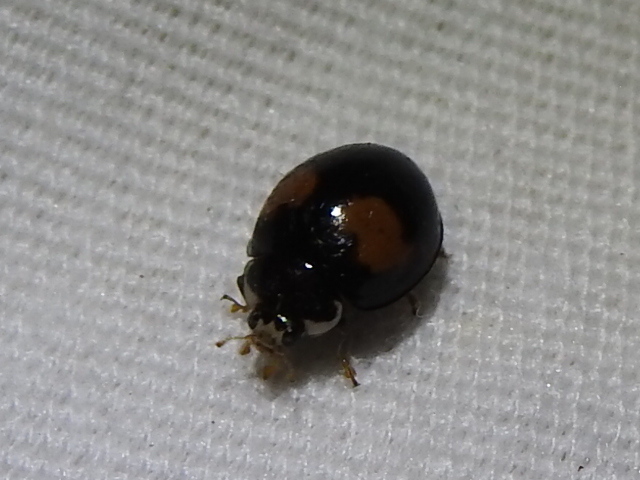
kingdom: Animalia
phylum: Arthropoda
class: Insecta
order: Coleoptera
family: Coccinellidae
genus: Olla
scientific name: Olla v-nigrum
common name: Ashy gray lady beetle
